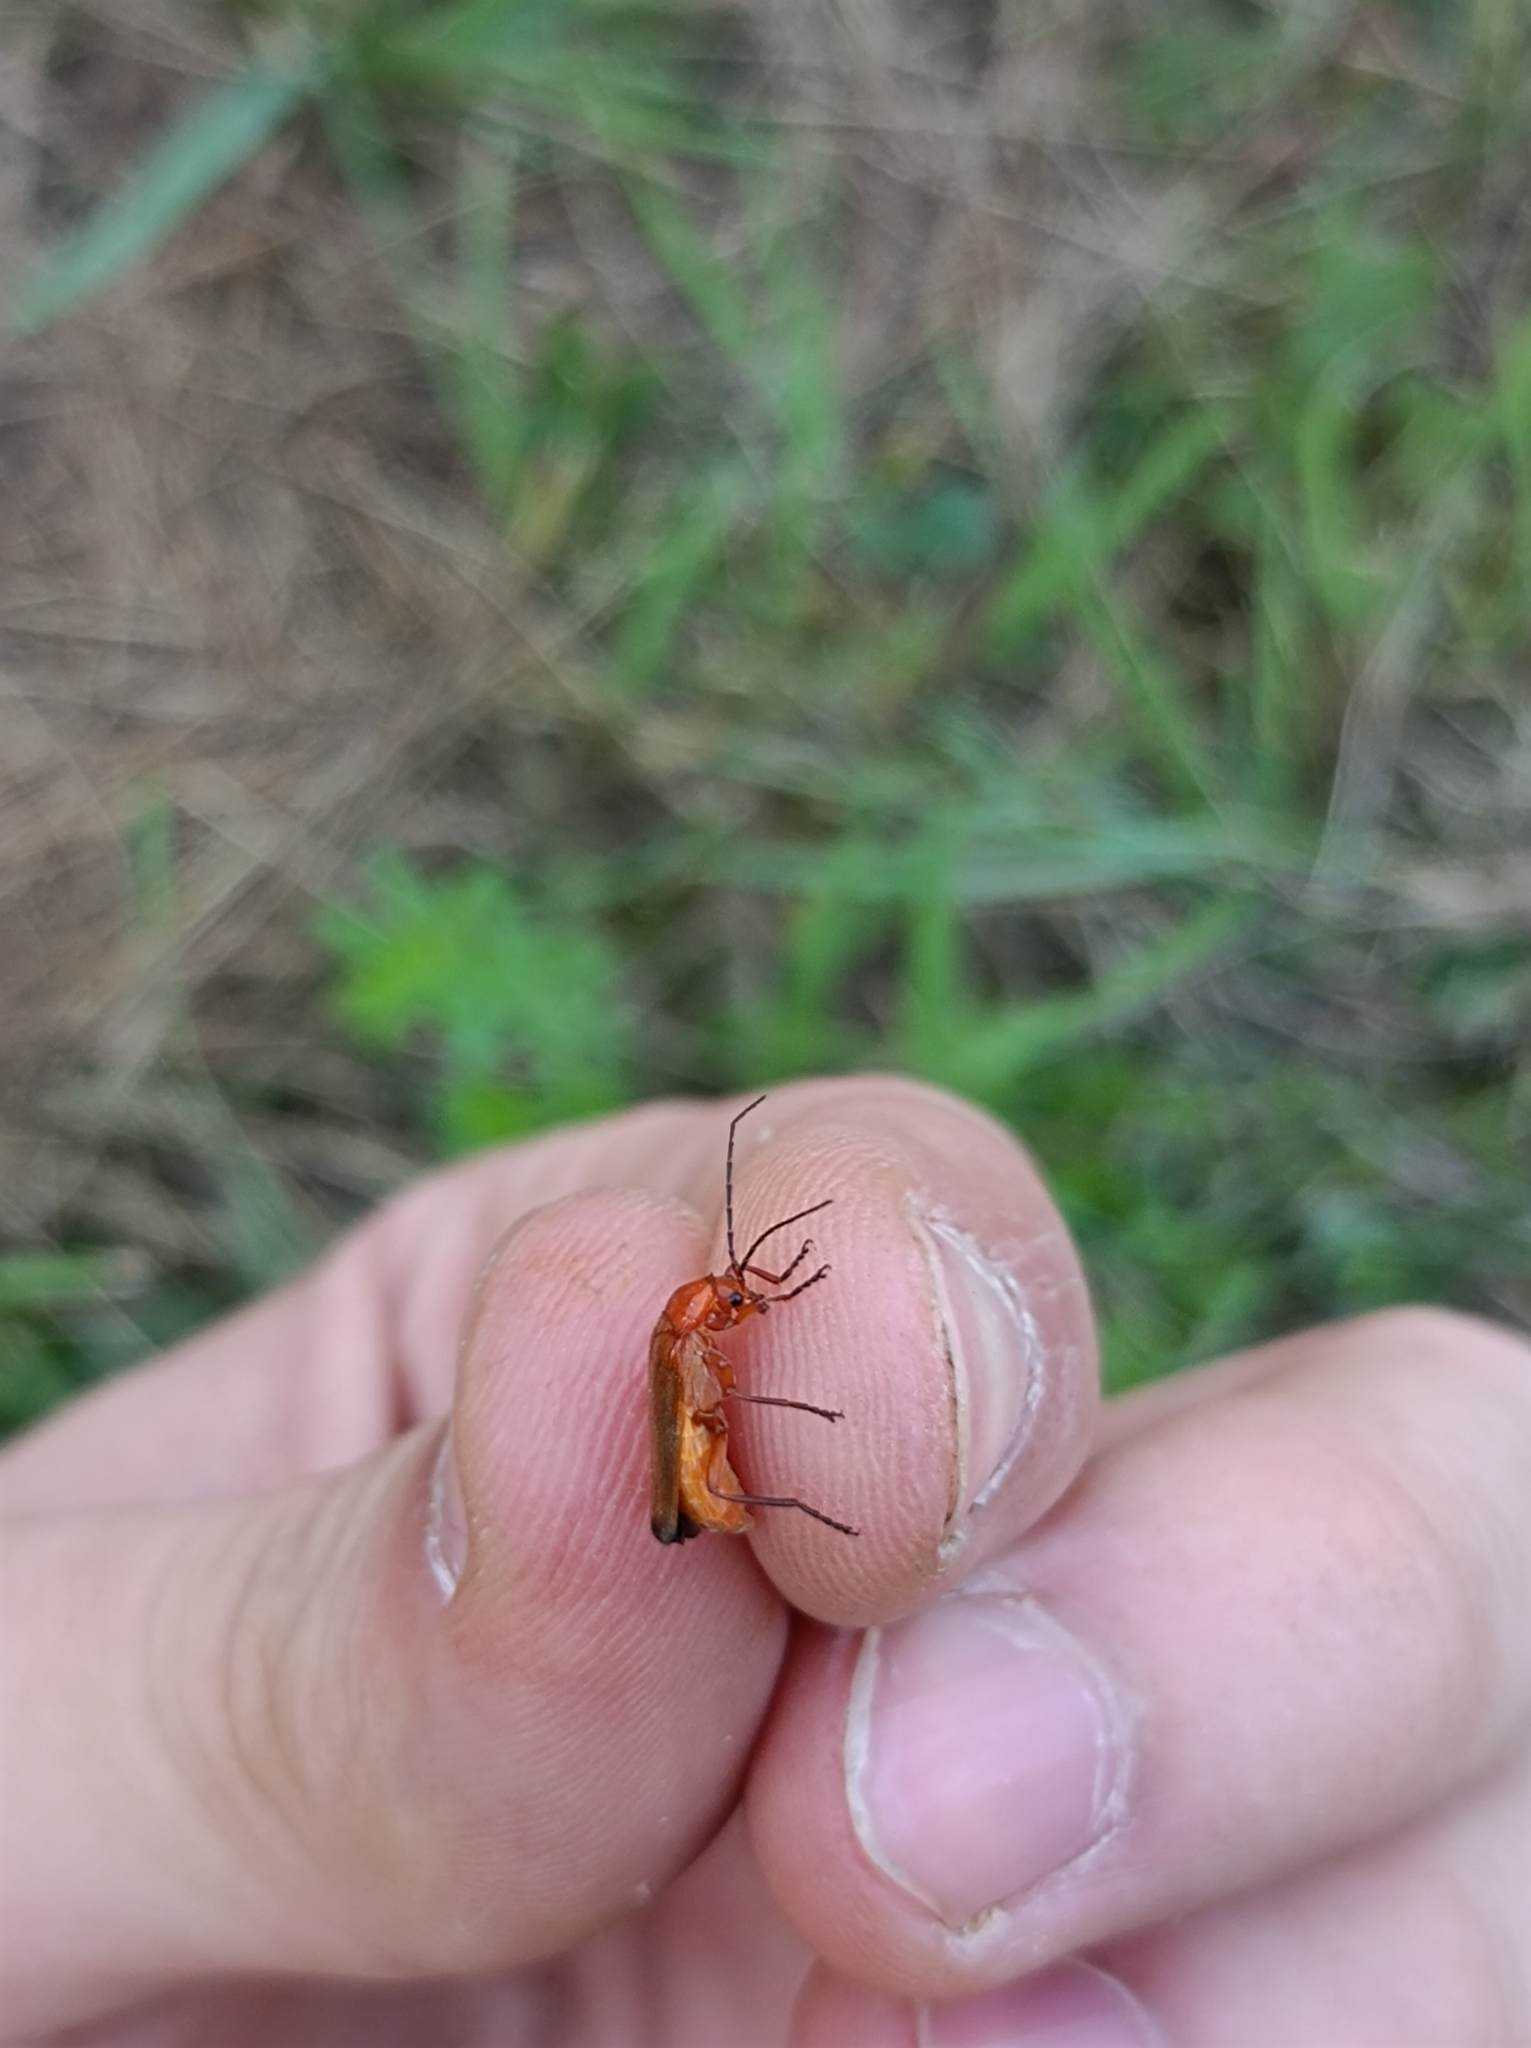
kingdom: Animalia
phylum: Arthropoda
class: Insecta
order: Coleoptera
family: Cantharidae
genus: Rhagonycha
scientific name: Rhagonycha fulva
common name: Common red soldier beetle
